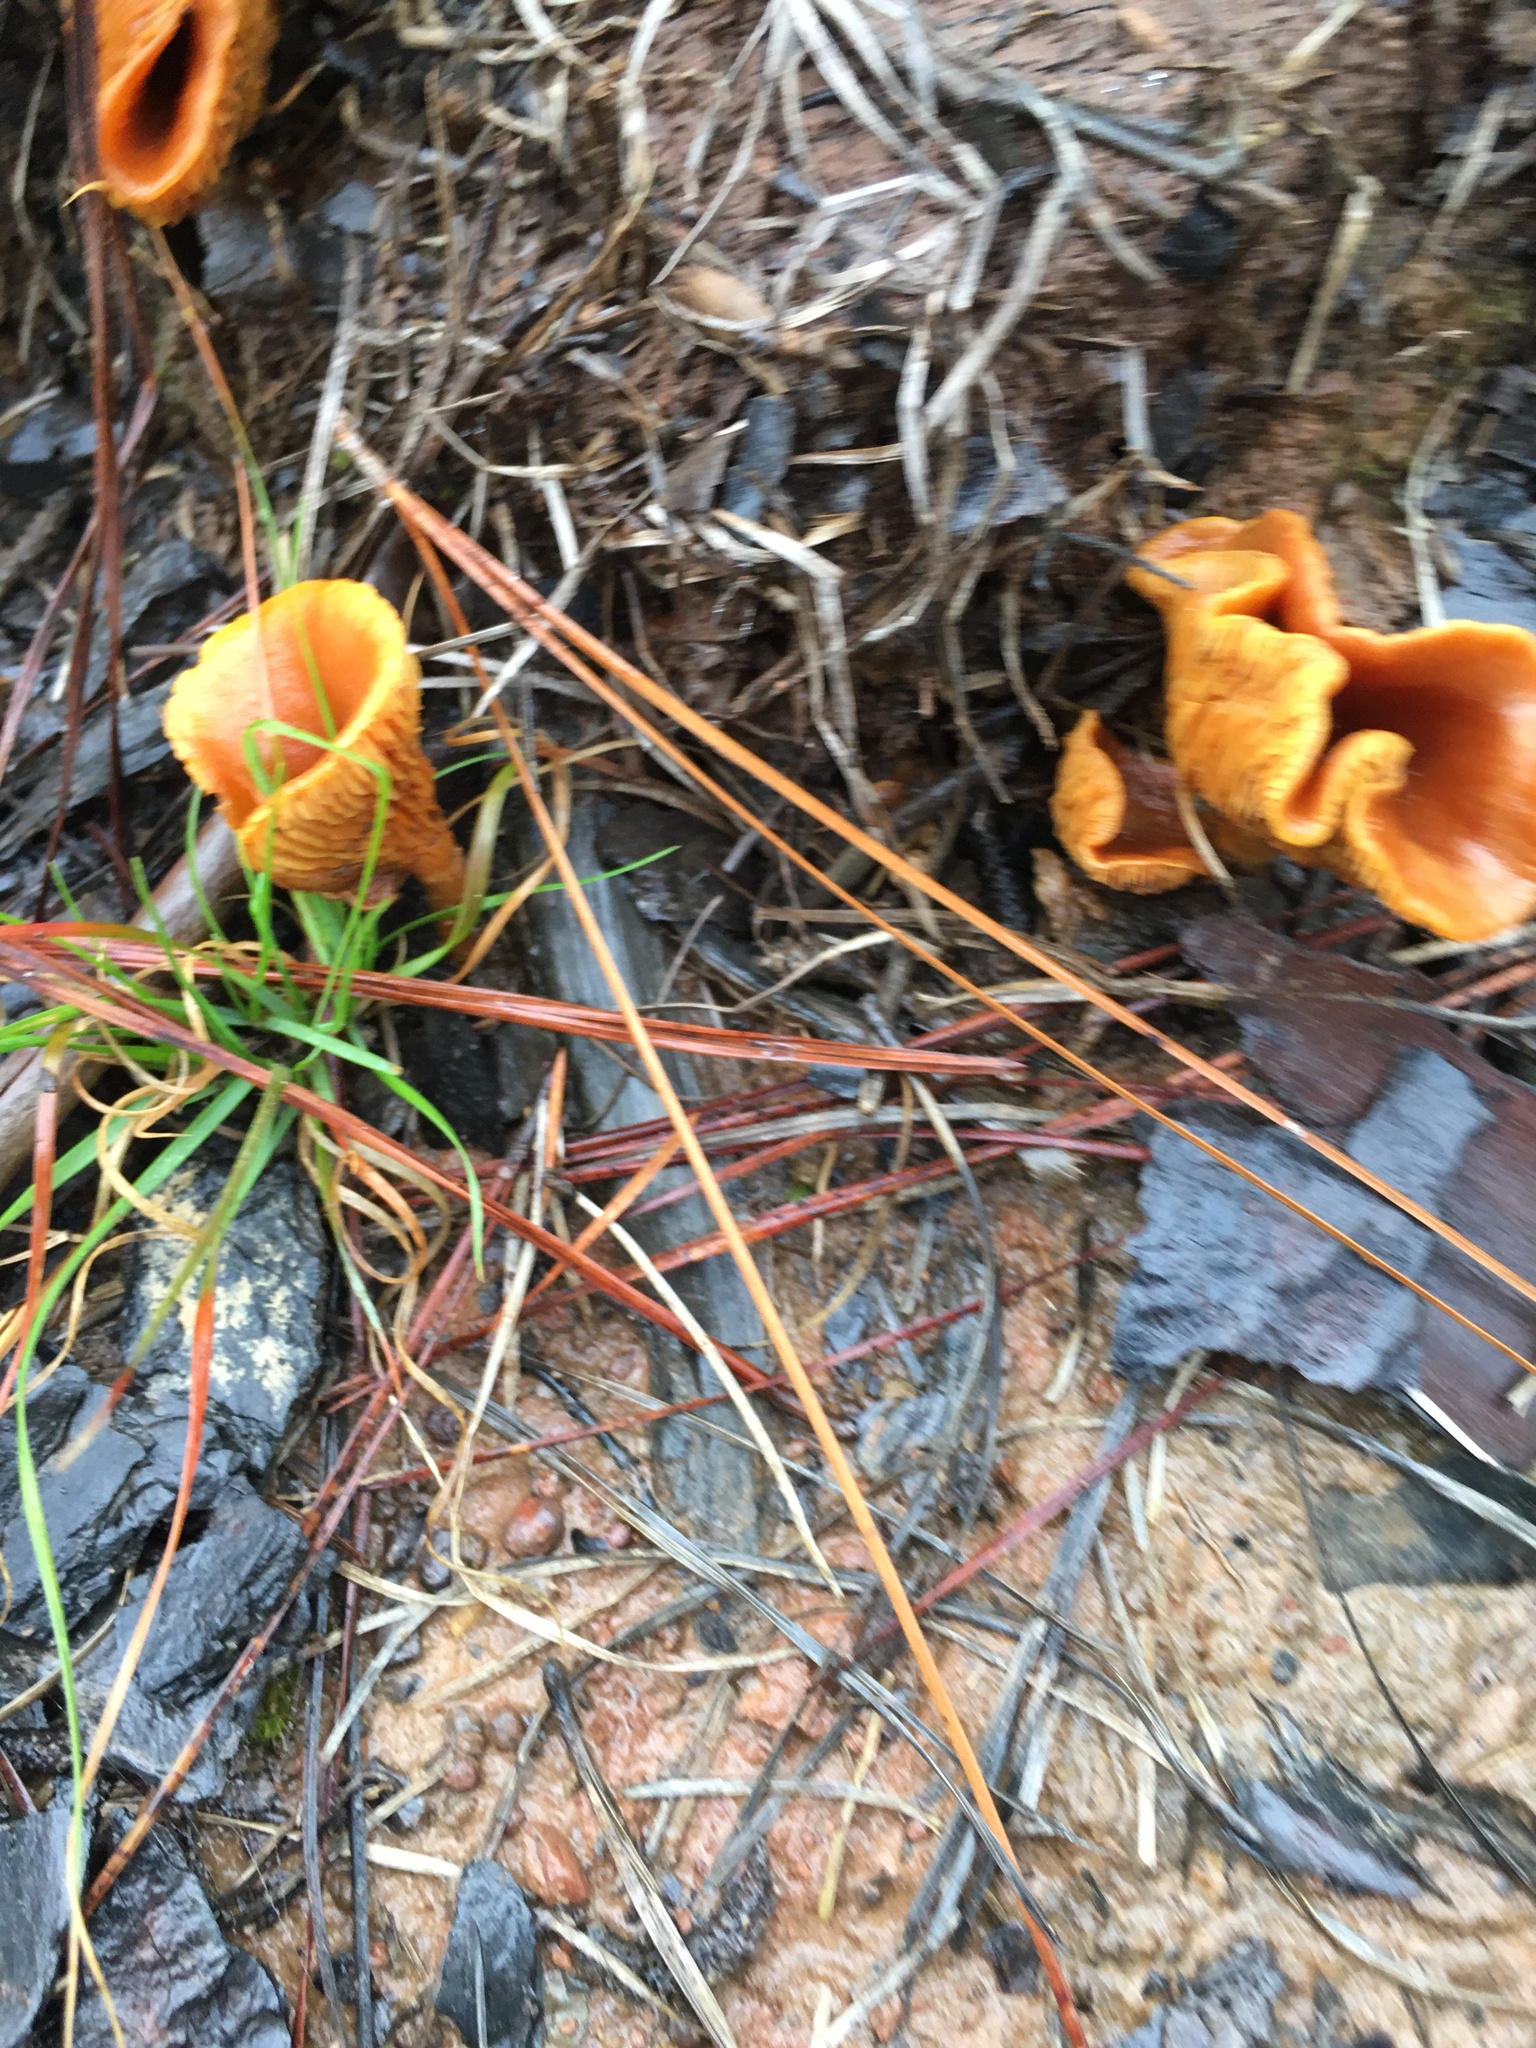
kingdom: Fungi
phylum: Basidiomycota
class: Agaricomycetes
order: Boletales
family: Hygrophoropsidaceae
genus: Hygrophoropsis
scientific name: Hygrophoropsis aurantiaca
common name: False chanterelle
